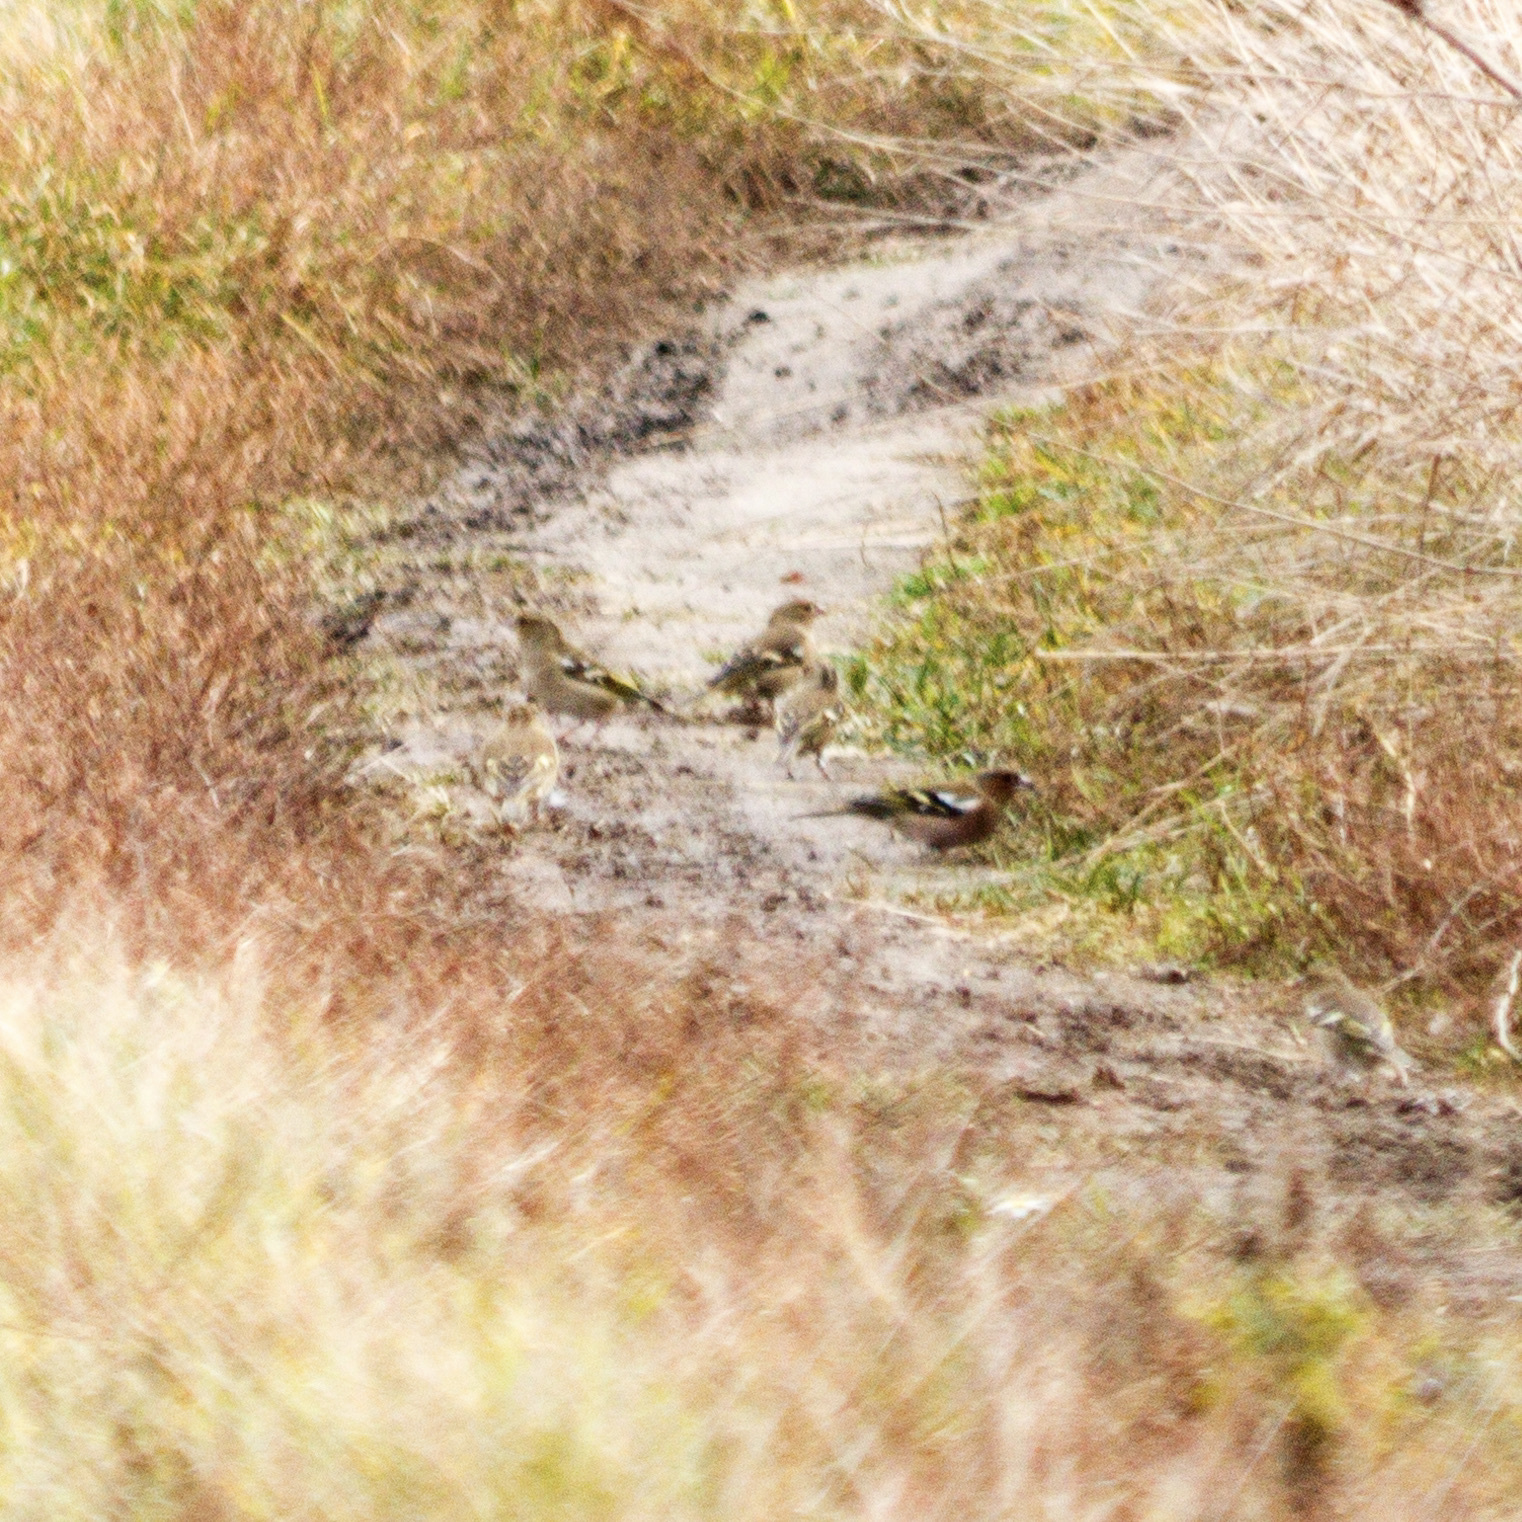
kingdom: Animalia
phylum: Chordata
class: Aves
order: Passeriformes
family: Fringillidae
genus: Fringilla
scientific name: Fringilla coelebs
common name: Common chaffinch
